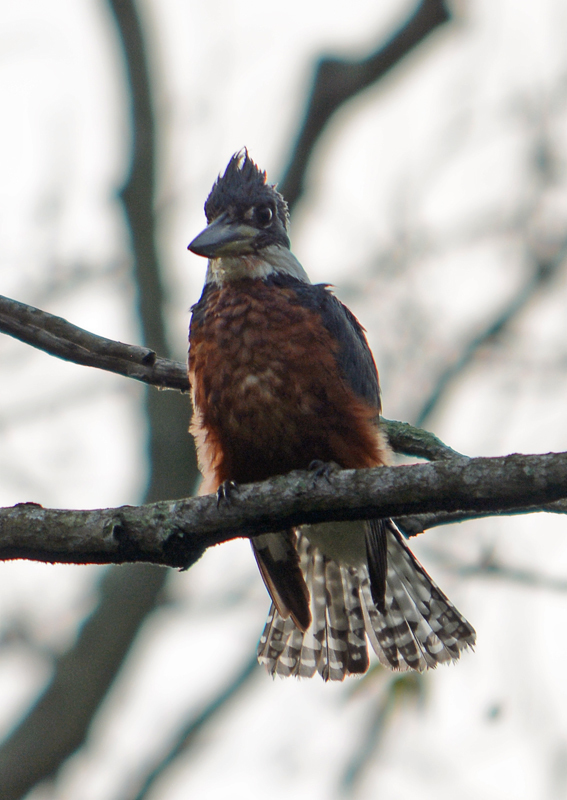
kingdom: Animalia
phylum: Chordata
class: Aves
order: Coraciiformes
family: Alcedinidae
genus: Megaceryle
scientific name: Megaceryle torquata
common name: Ringed kingfisher
